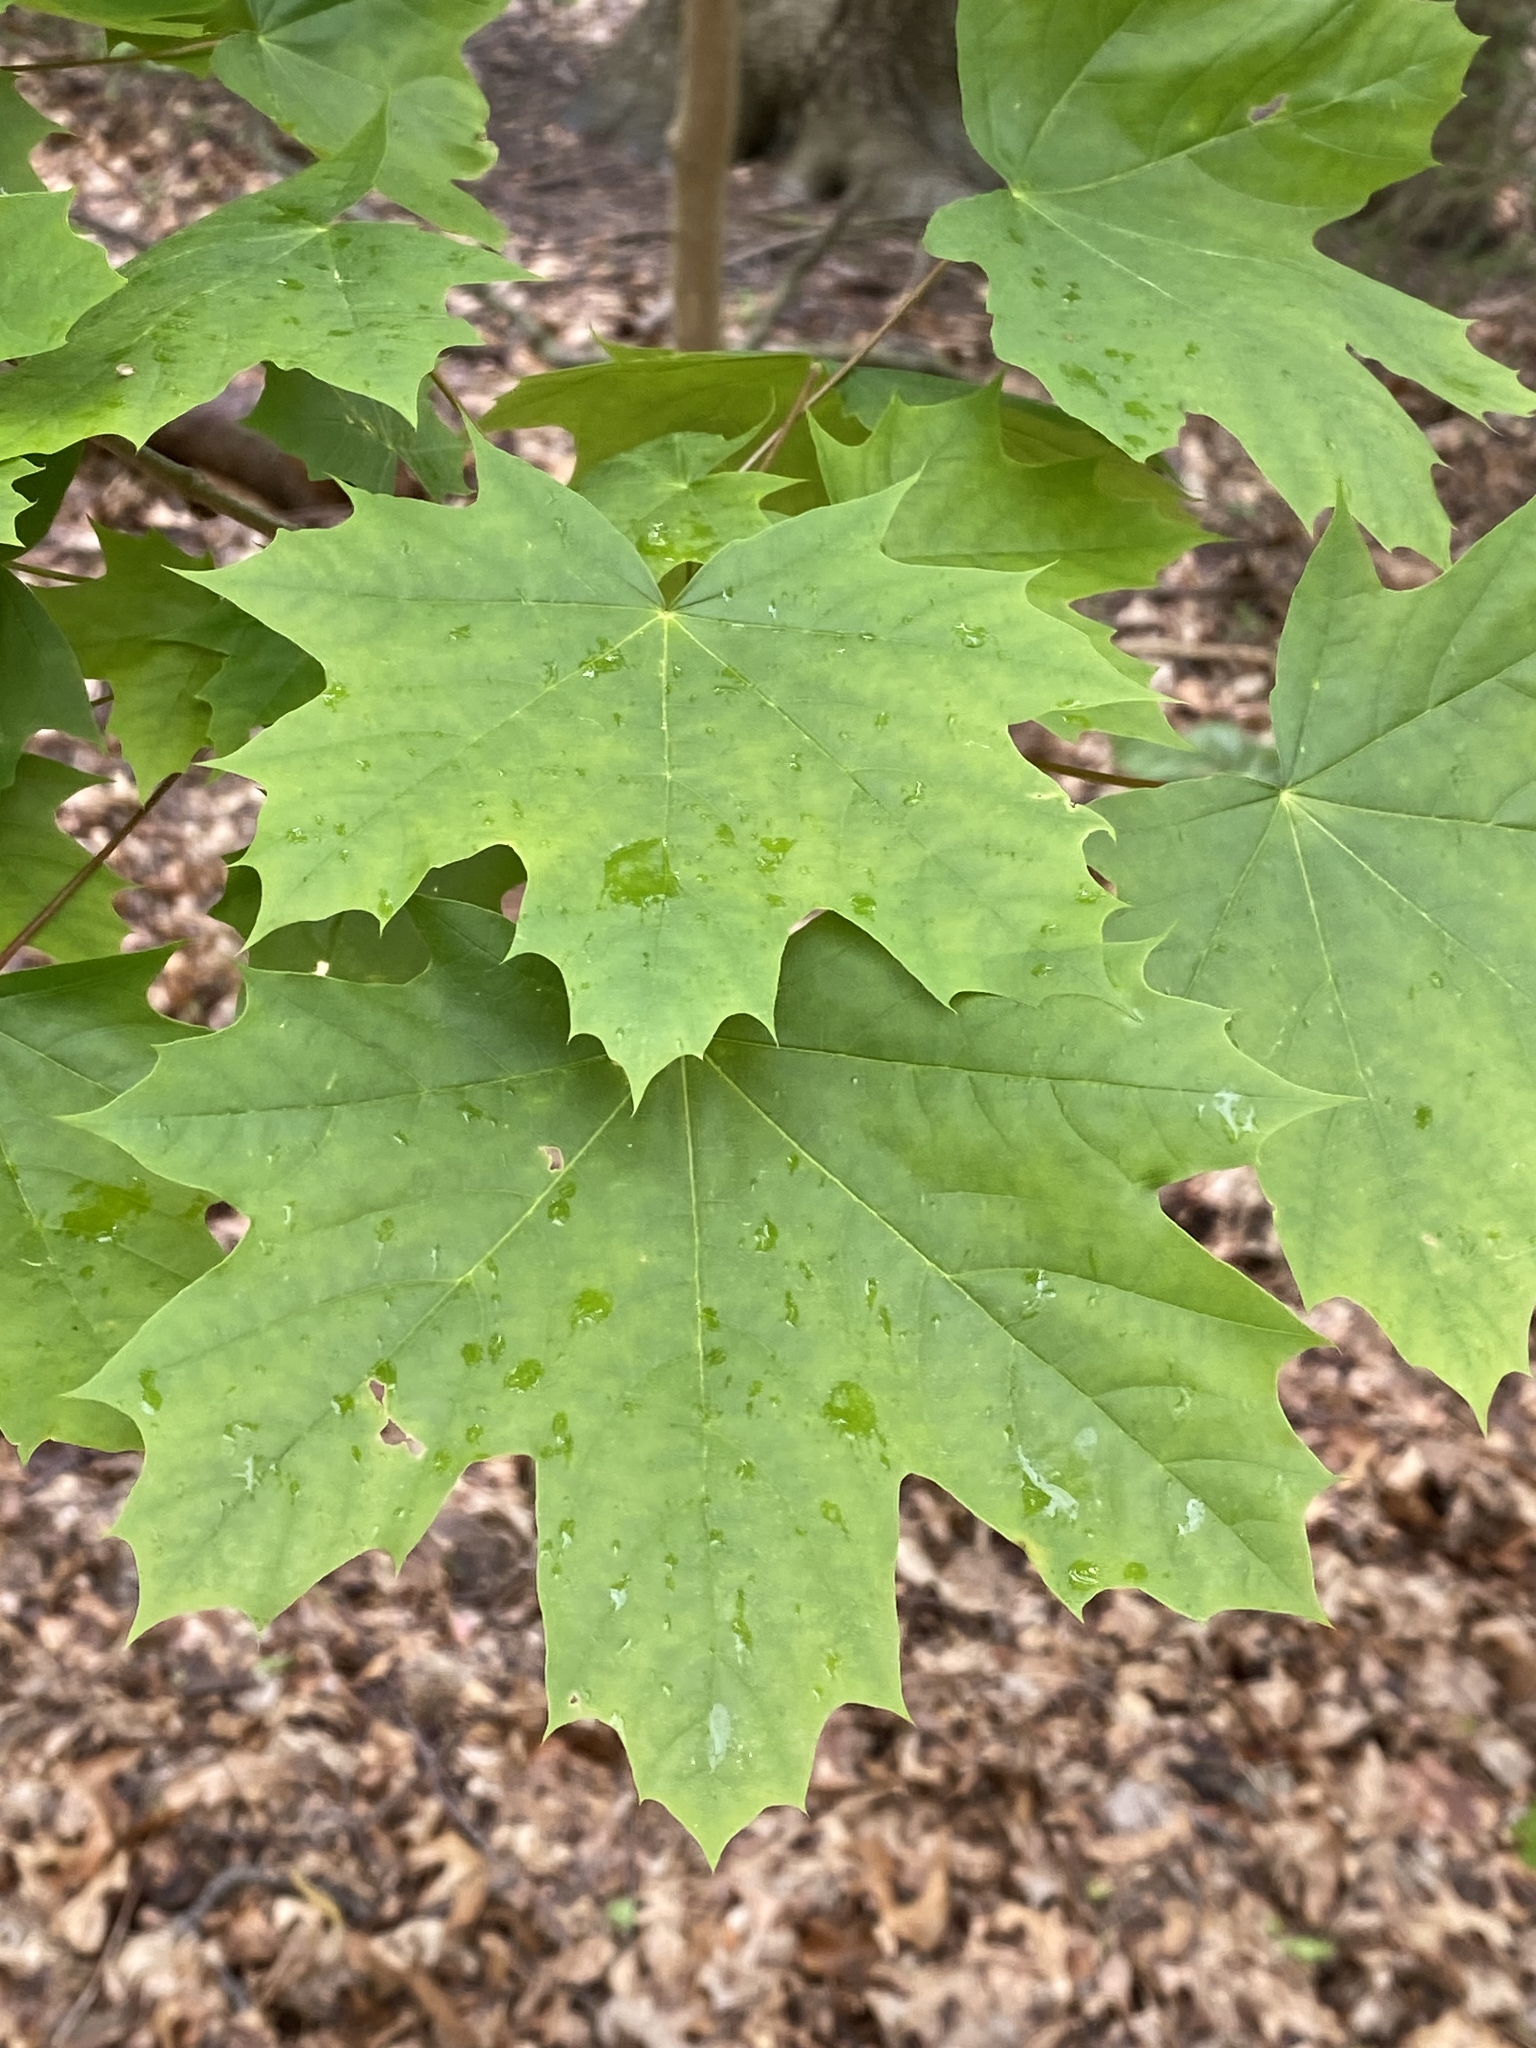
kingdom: Plantae
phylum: Tracheophyta
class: Magnoliopsida
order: Sapindales
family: Sapindaceae
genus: Acer
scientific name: Acer platanoides
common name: Norway maple
